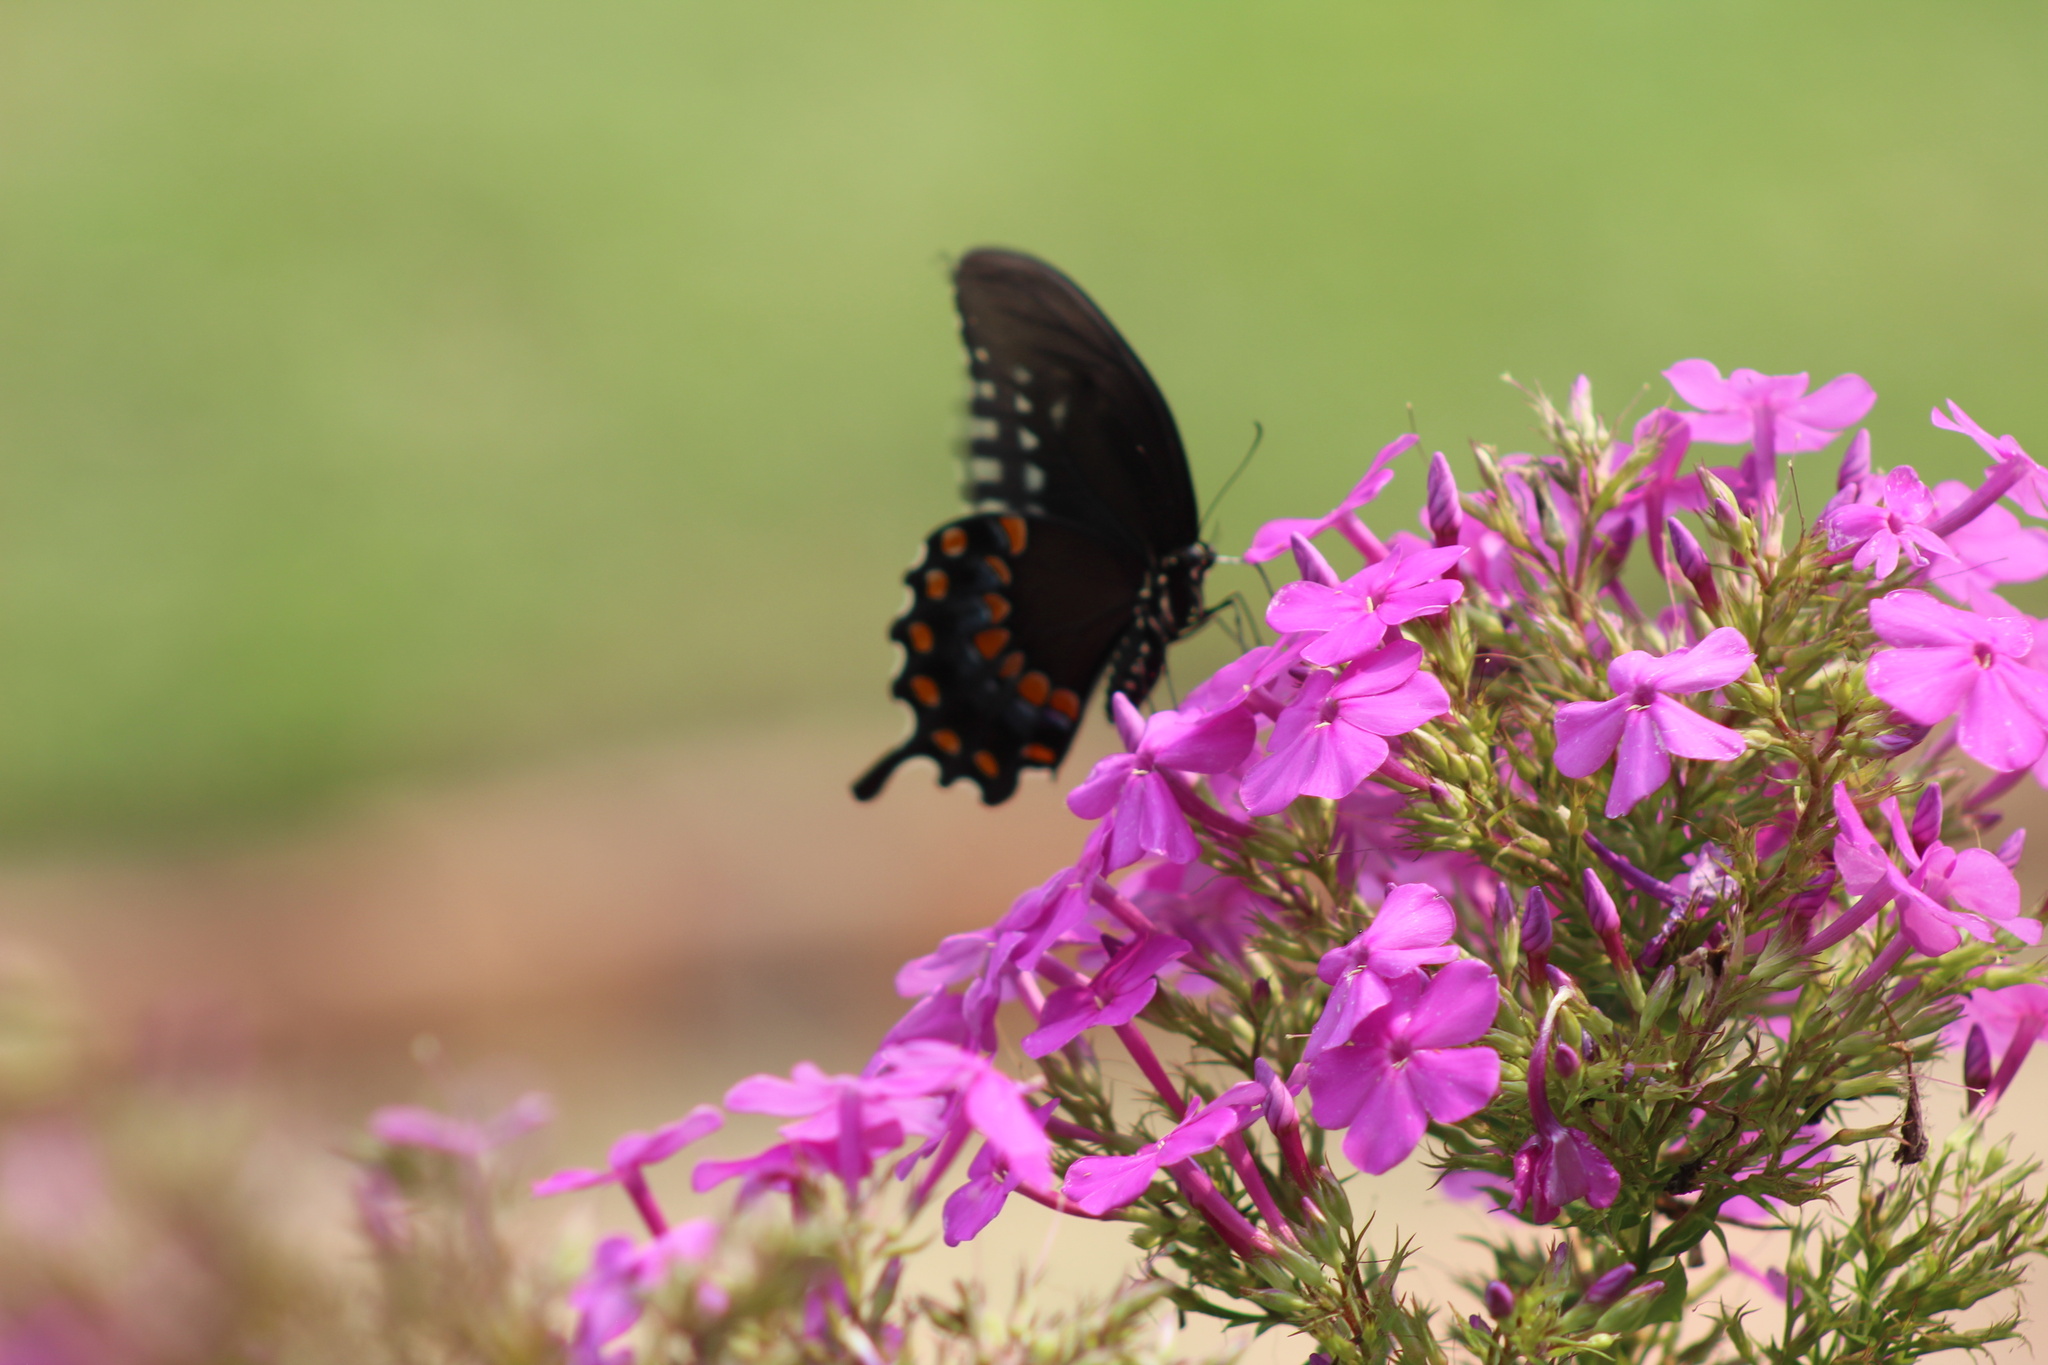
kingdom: Animalia
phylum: Arthropoda
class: Insecta
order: Lepidoptera
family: Papilionidae
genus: Papilio
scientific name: Papilio troilus
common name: Spicebush swallowtail
